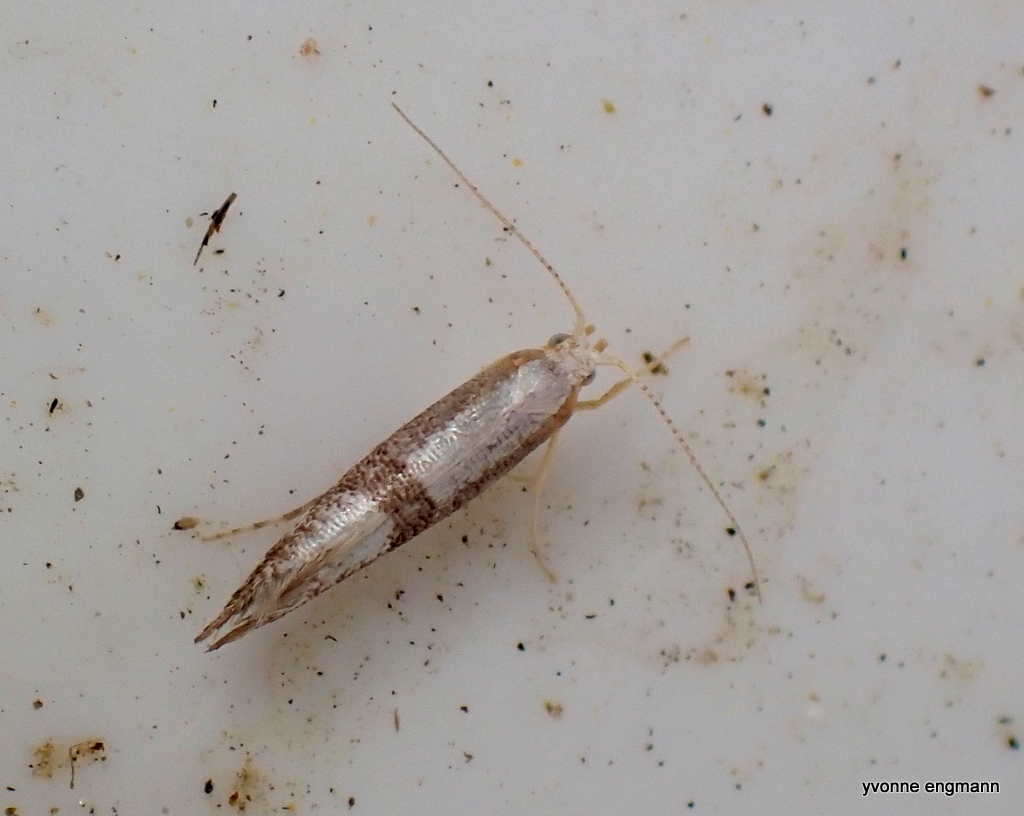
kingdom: Animalia
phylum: Arthropoda
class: Insecta
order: Lepidoptera
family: Argyresthiidae
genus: Argyresthia
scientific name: Argyresthia spinosella
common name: Blackthorn argent
